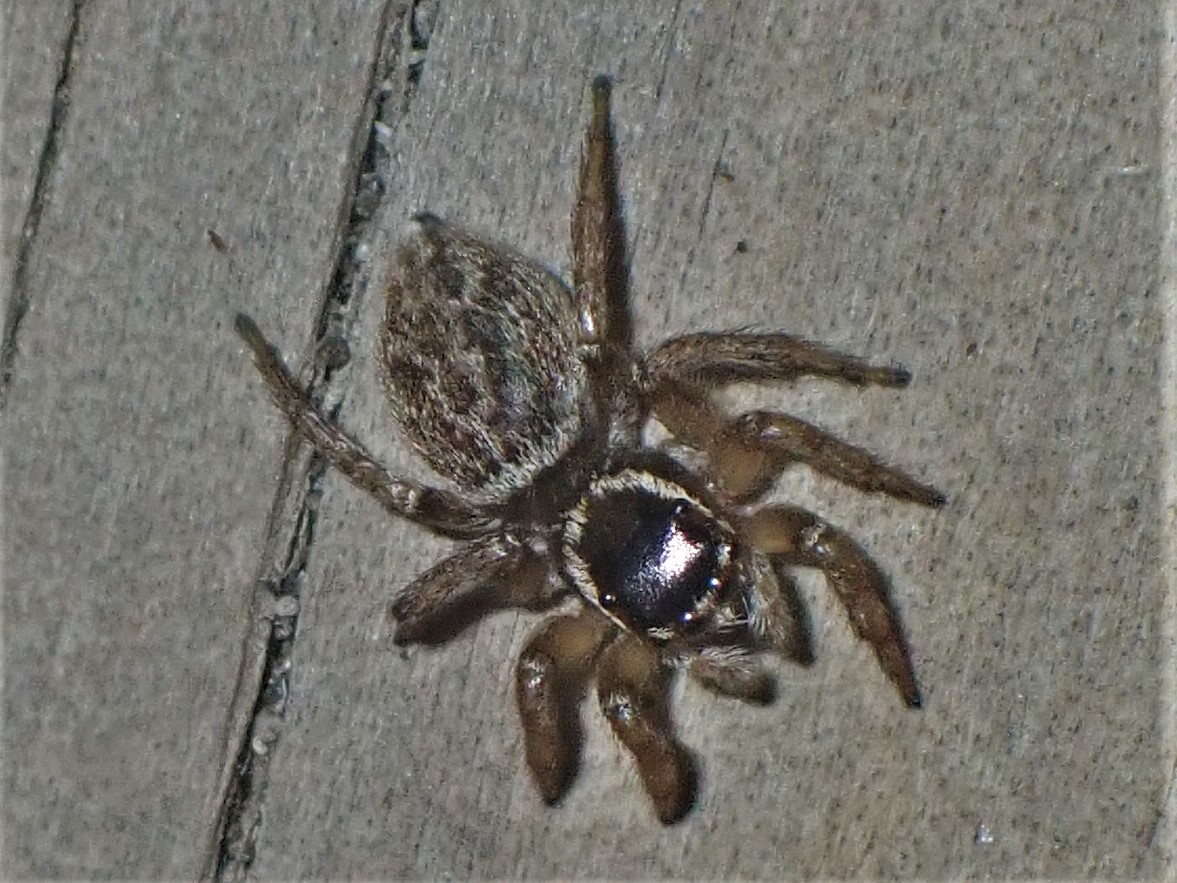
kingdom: Animalia
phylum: Arthropoda
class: Arachnida
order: Araneae
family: Salticidae
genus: Maratus
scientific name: Maratus griseus
